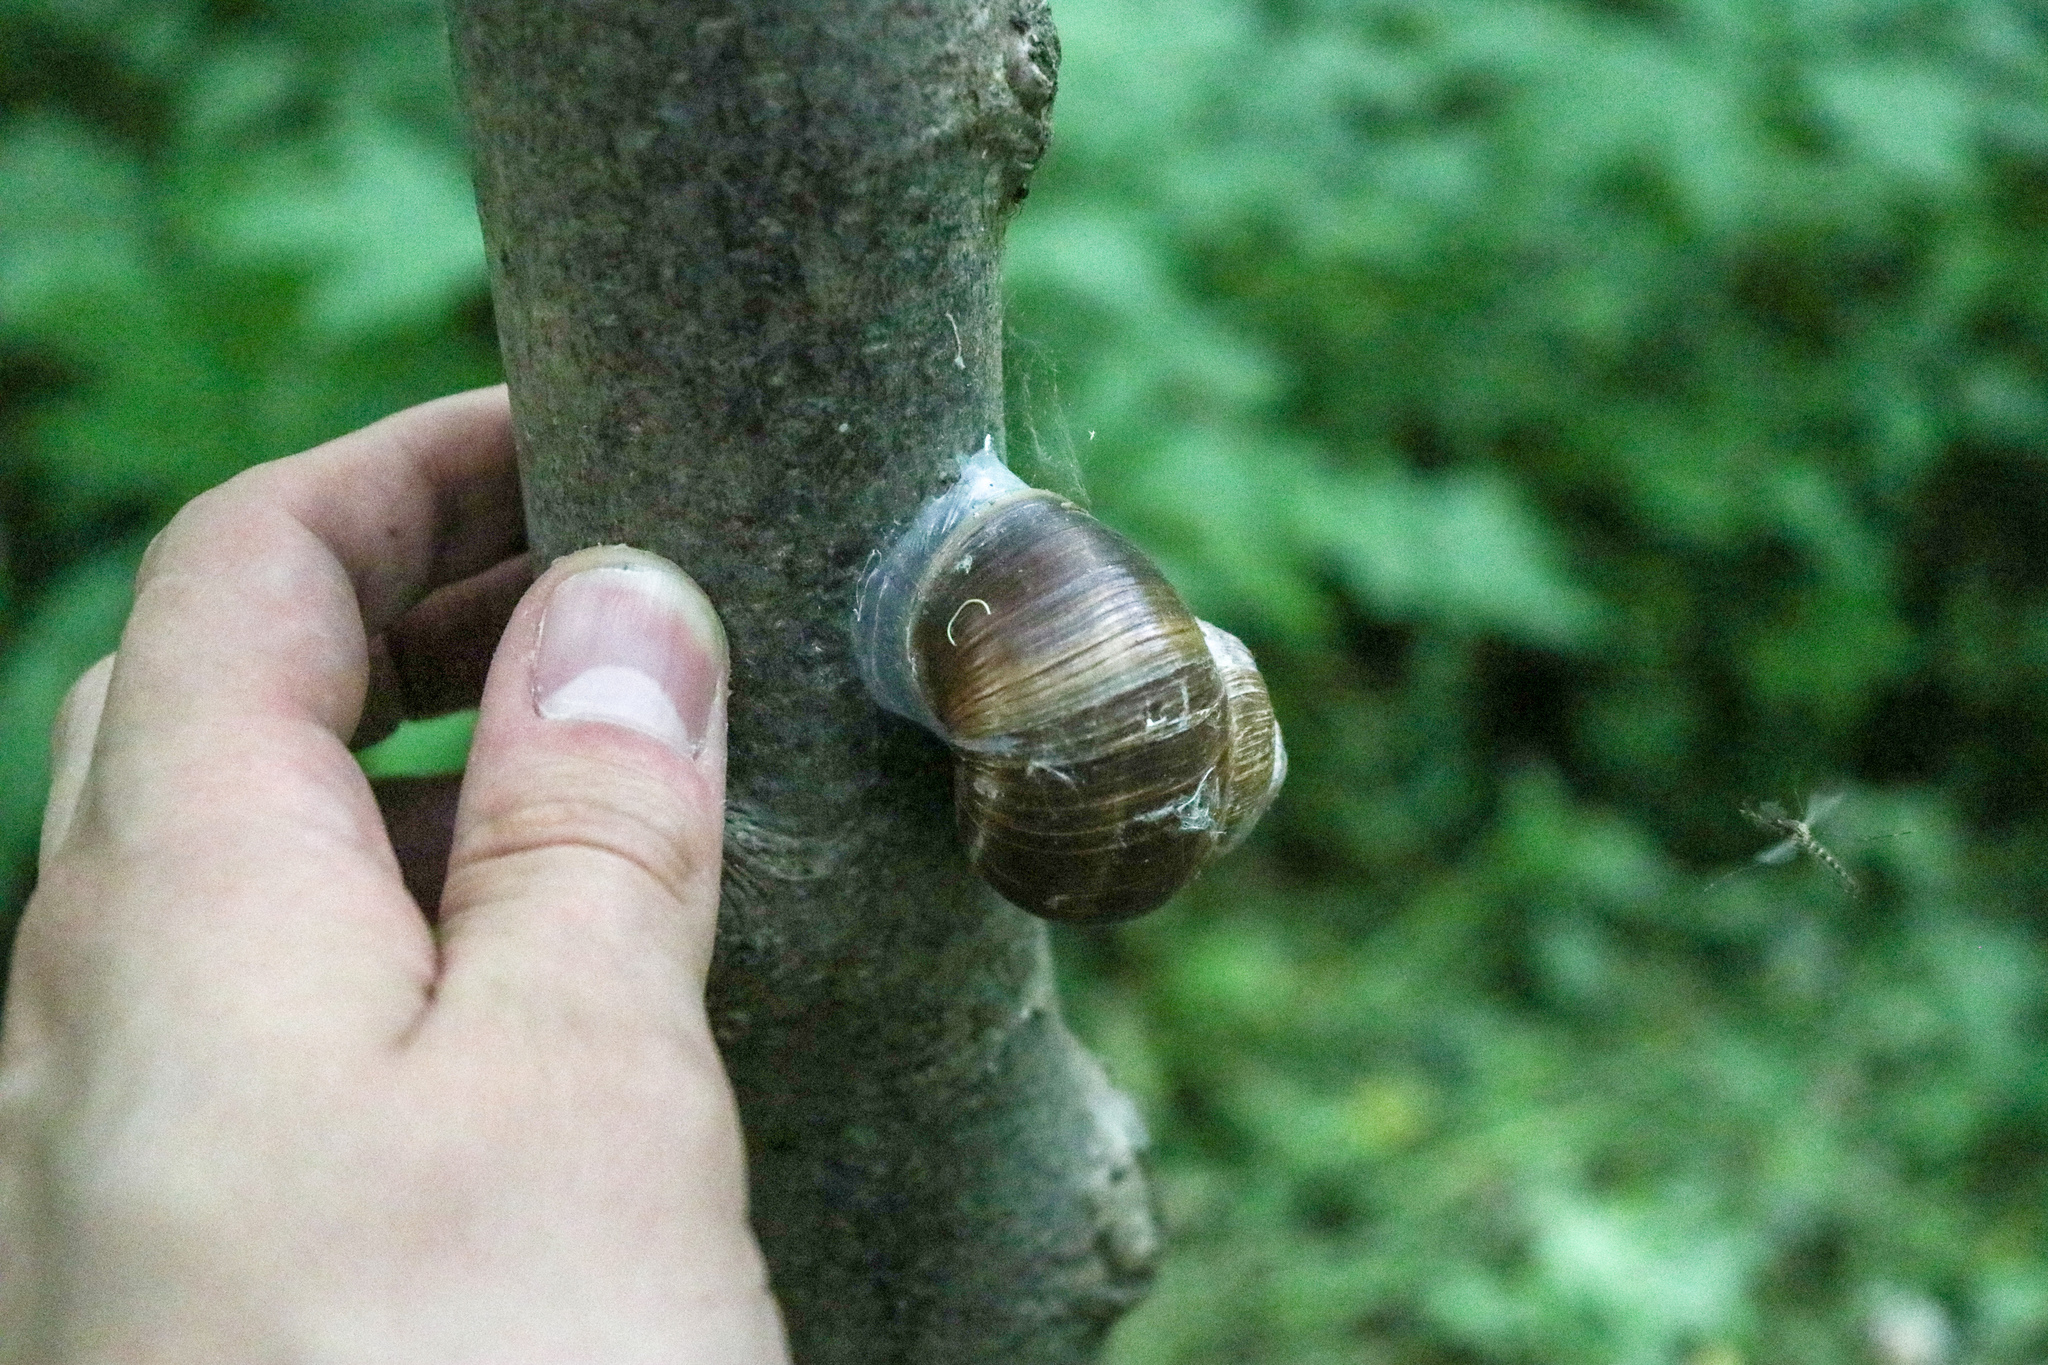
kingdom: Animalia
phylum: Mollusca
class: Gastropoda
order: Stylommatophora
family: Helicidae
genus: Helix
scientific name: Helix pomatia
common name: Roman snail
